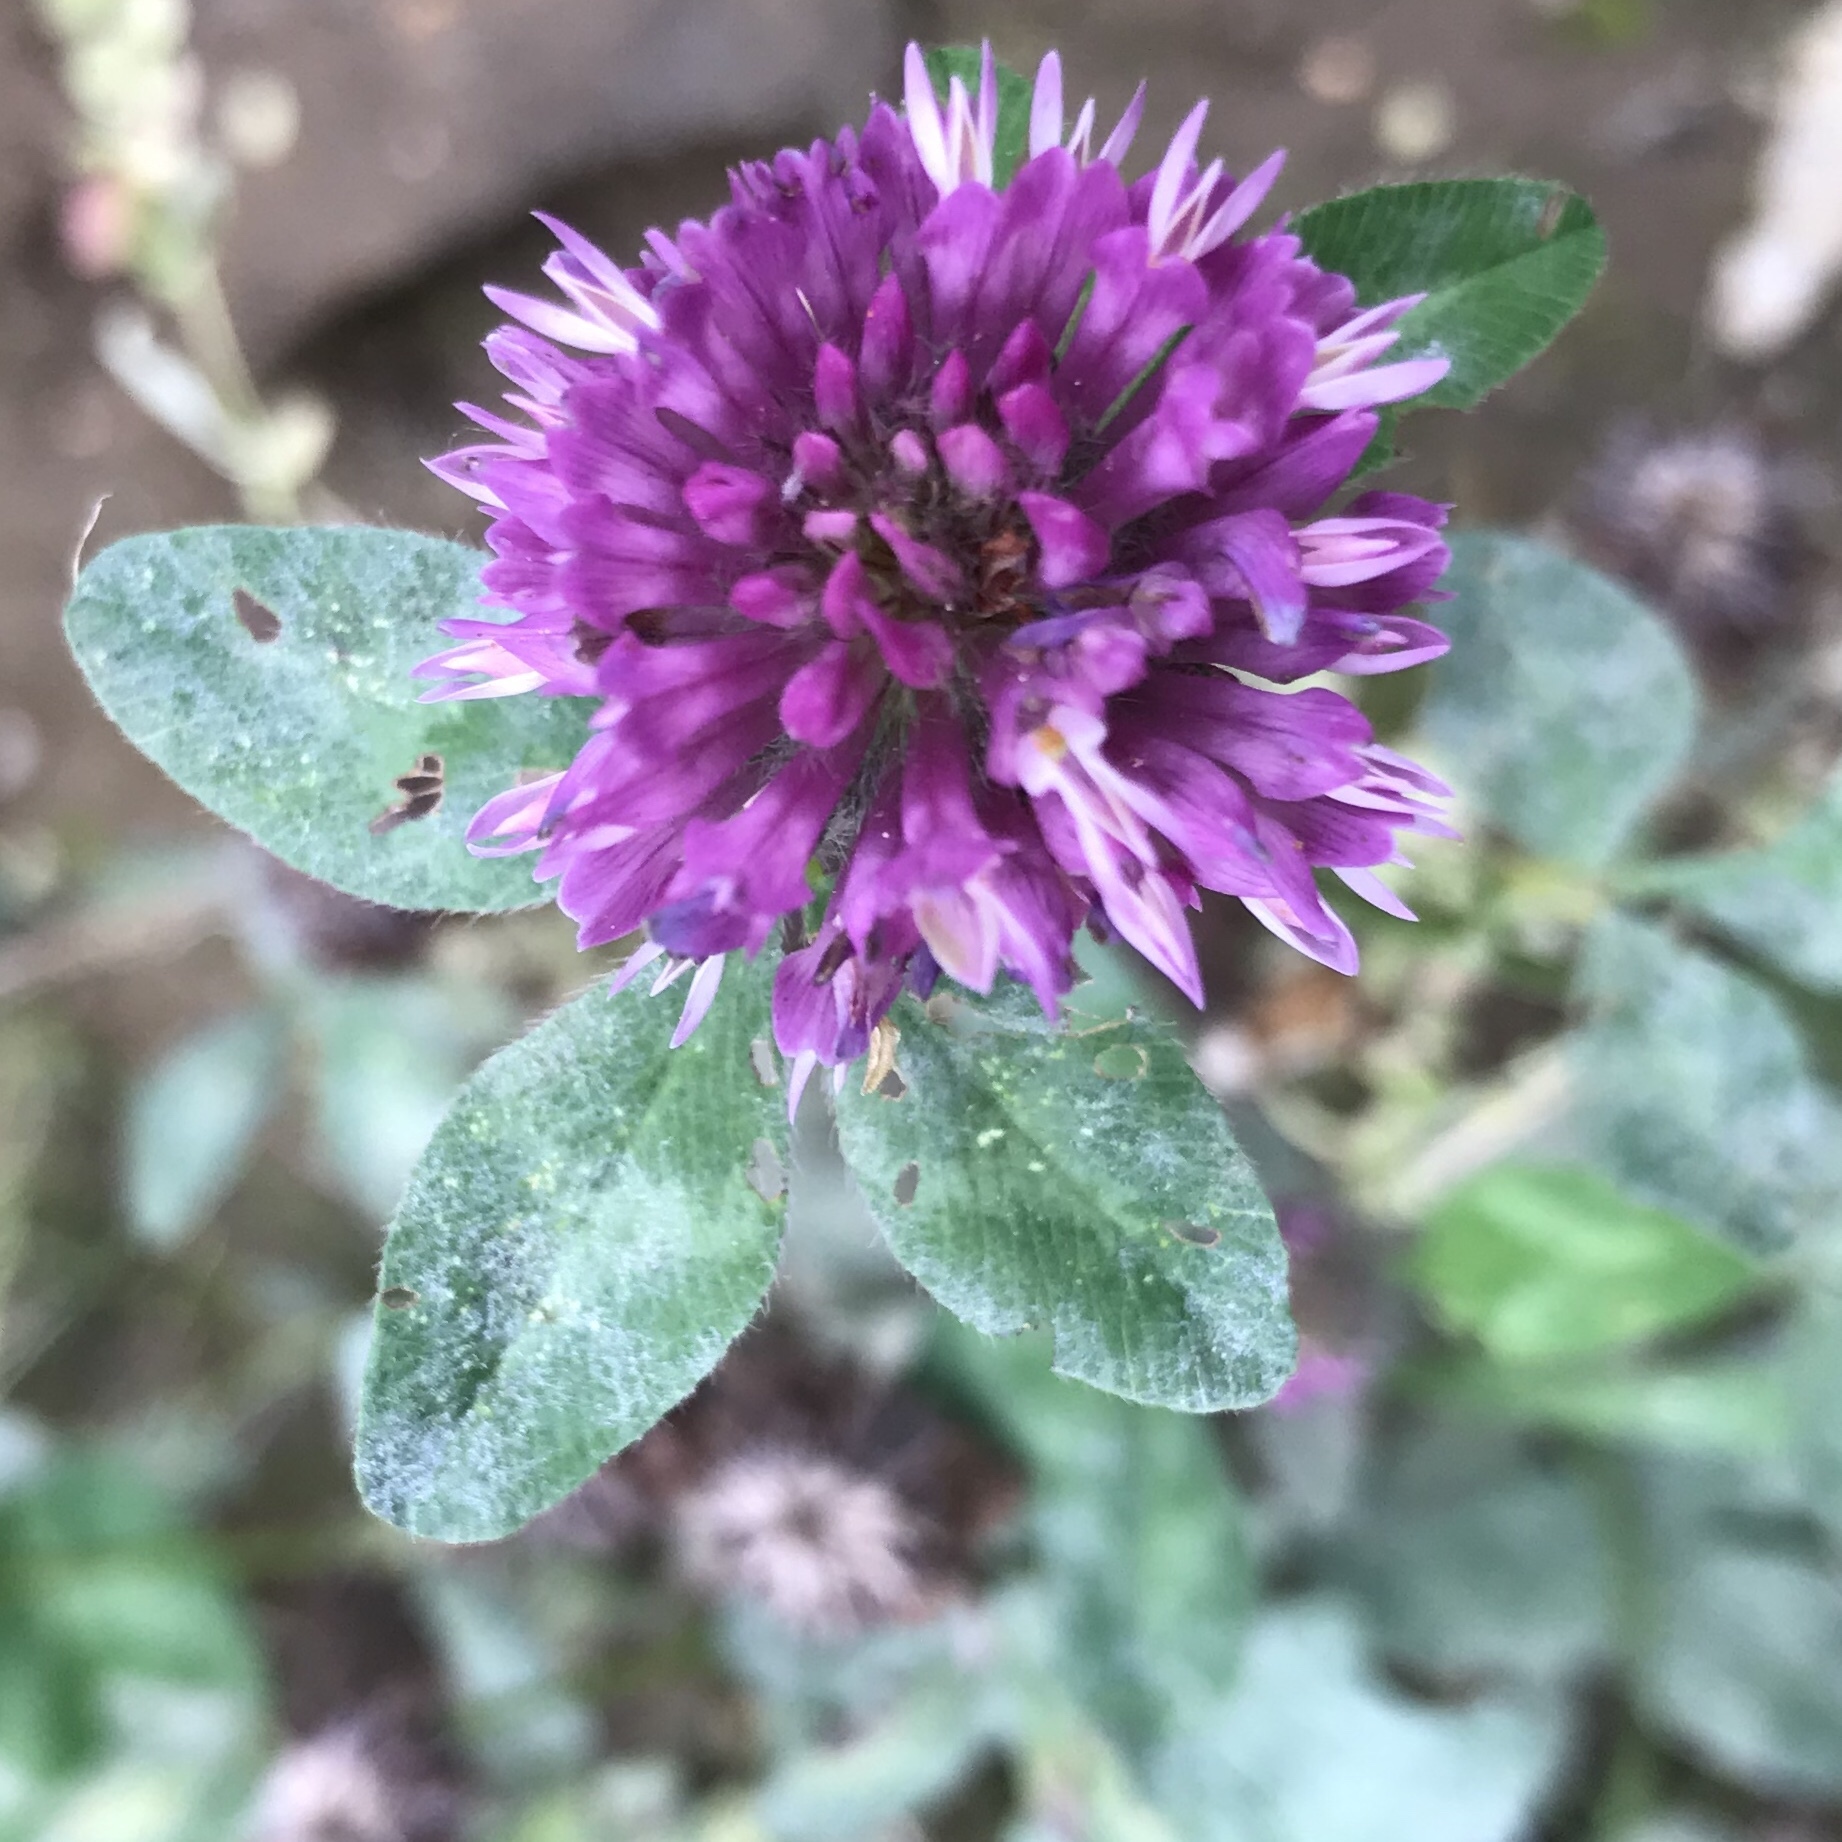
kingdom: Plantae
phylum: Tracheophyta
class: Magnoliopsida
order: Fabales
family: Fabaceae
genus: Trifolium
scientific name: Trifolium pratense
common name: Red clover
